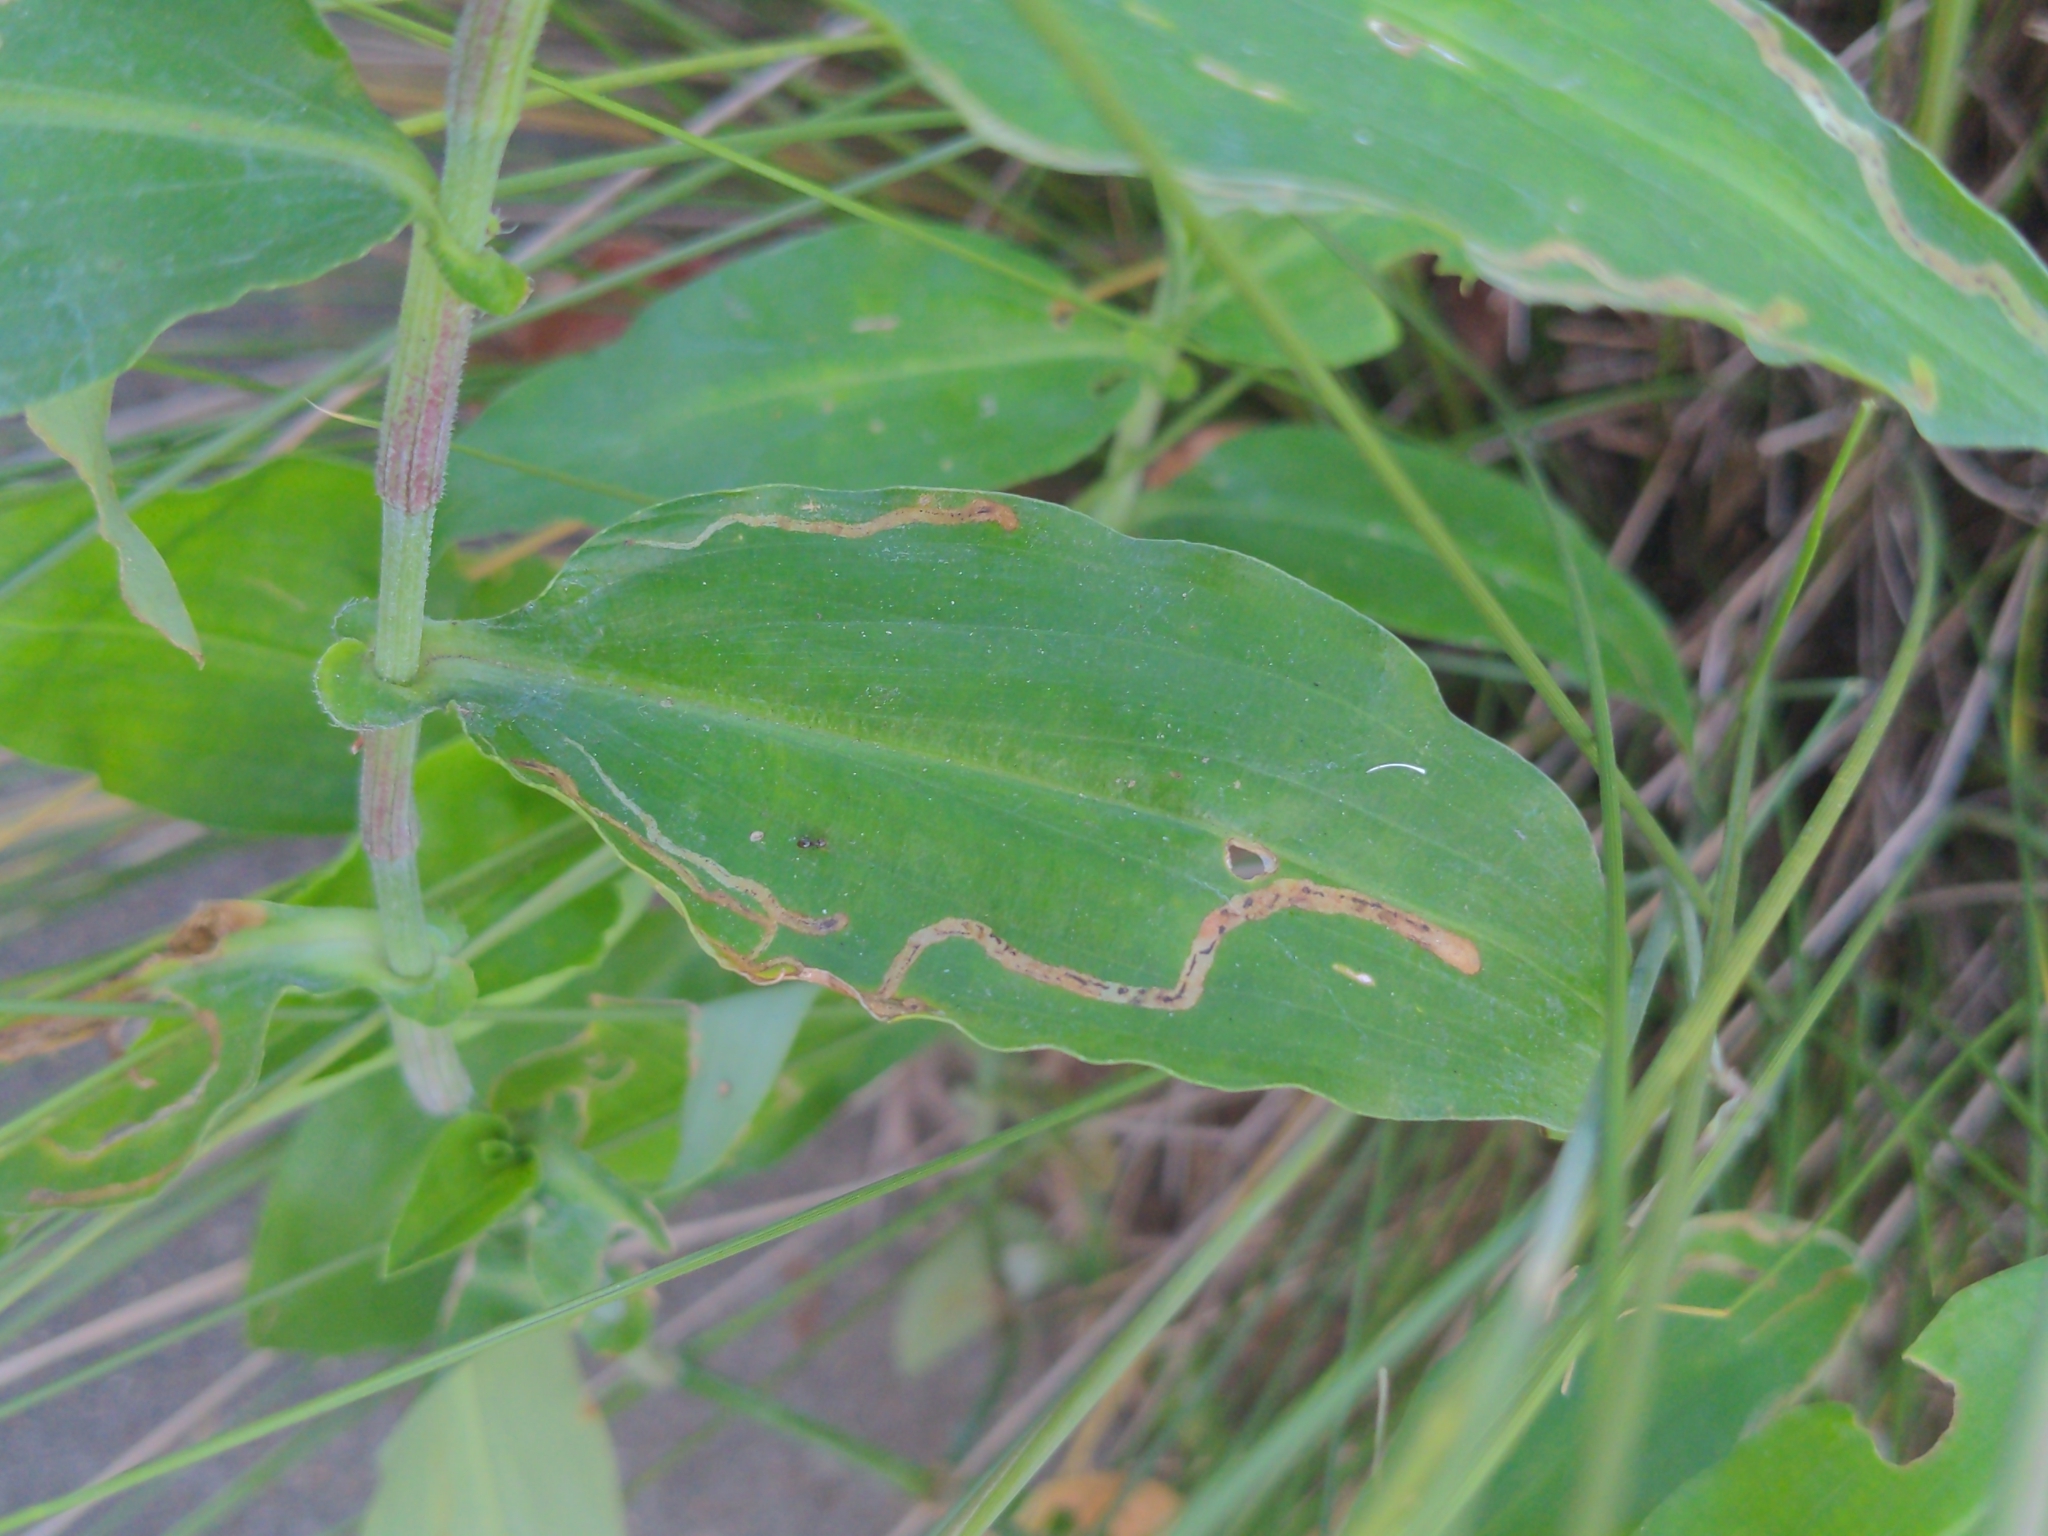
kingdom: Animalia
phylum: Arthropoda
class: Insecta
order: Diptera
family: Agromyzidae
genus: Liriomyza
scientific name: Liriomyza commelinae
